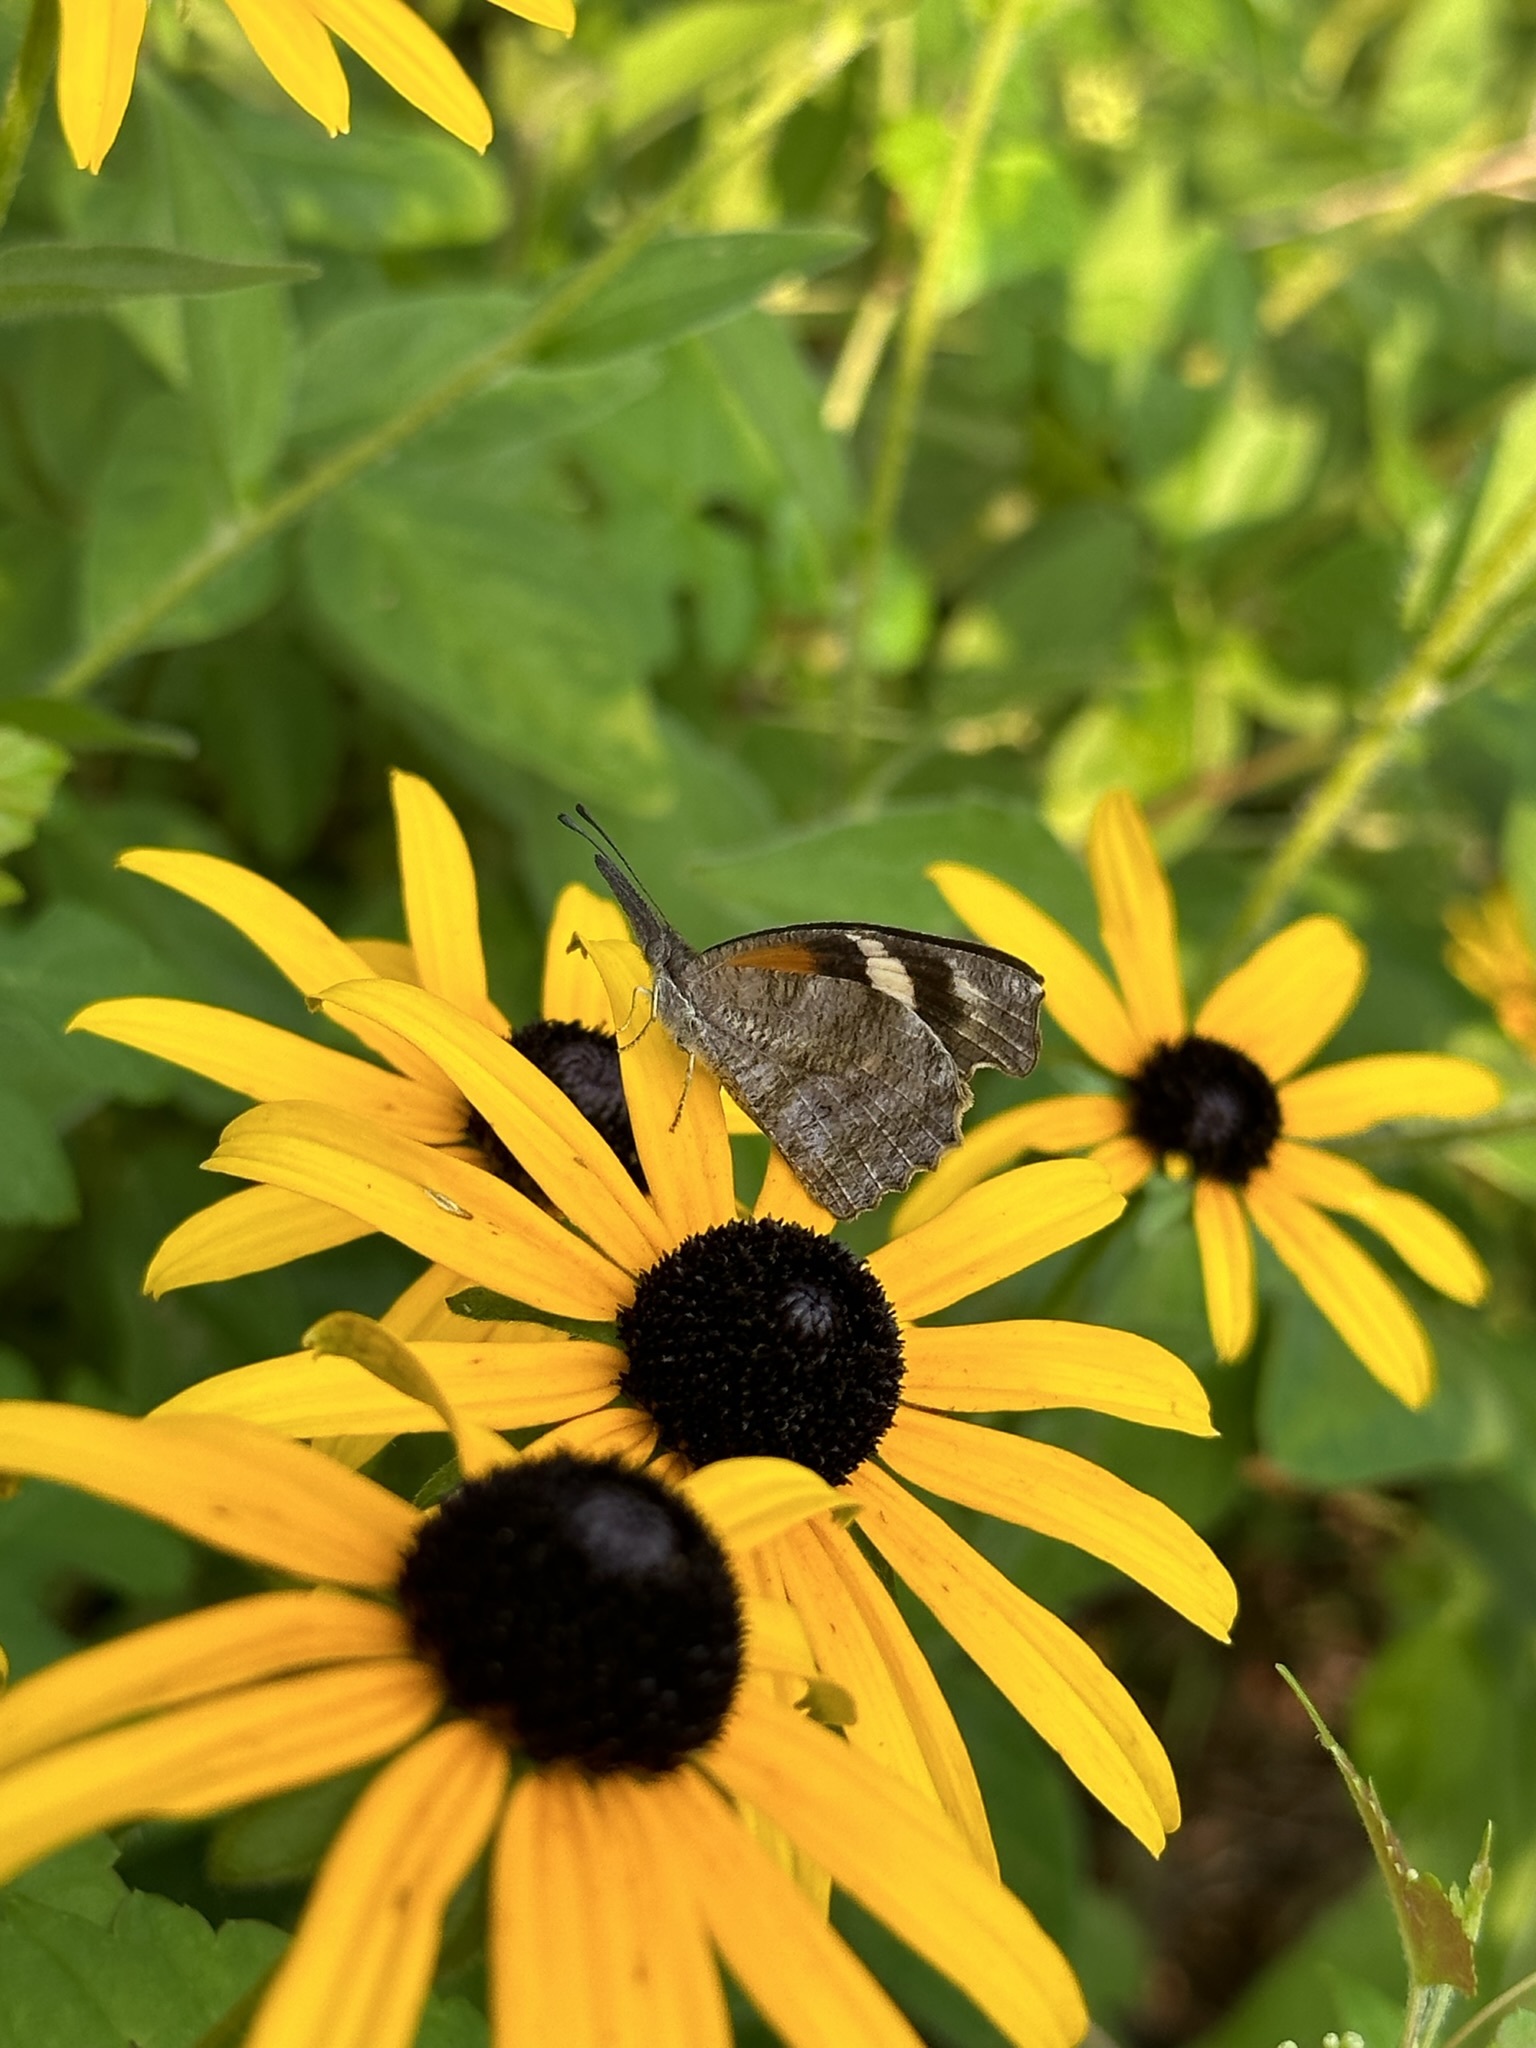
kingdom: Animalia
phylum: Arthropoda
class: Insecta
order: Lepidoptera
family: Nymphalidae
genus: Libytheana
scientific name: Libytheana carinenta
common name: American snout
